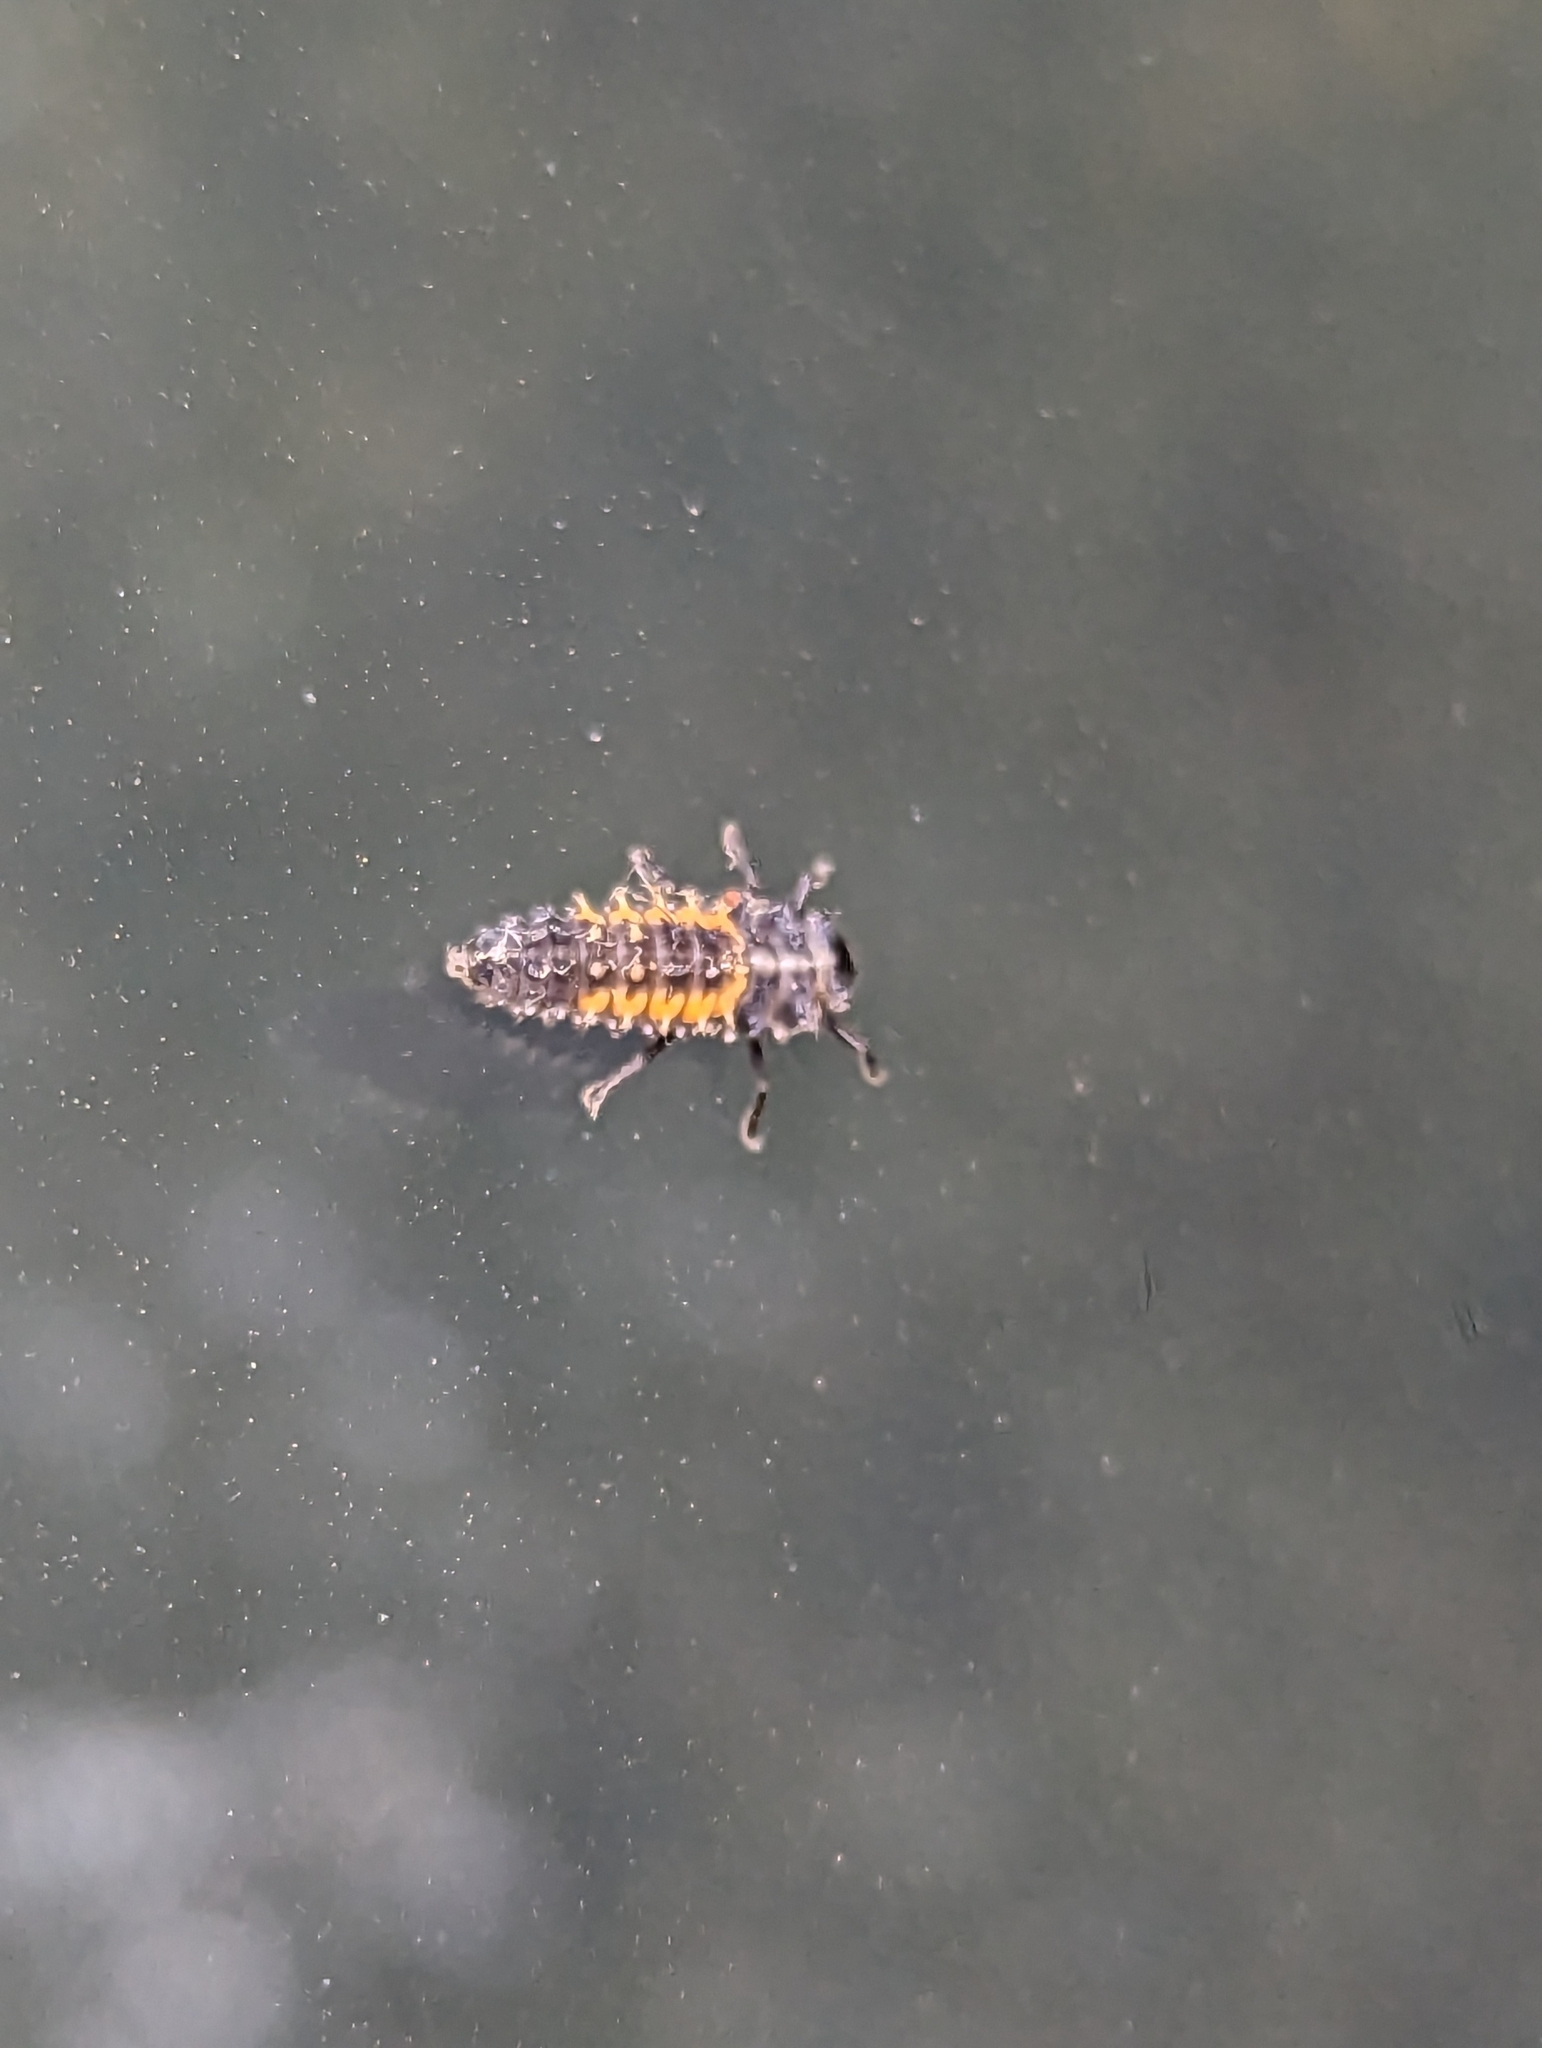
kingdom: Animalia
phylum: Arthropoda
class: Insecta
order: Coleoptera
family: Coccinellidae
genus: Harmonia
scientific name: Harmonia axyridis
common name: Harlequin ladybird
